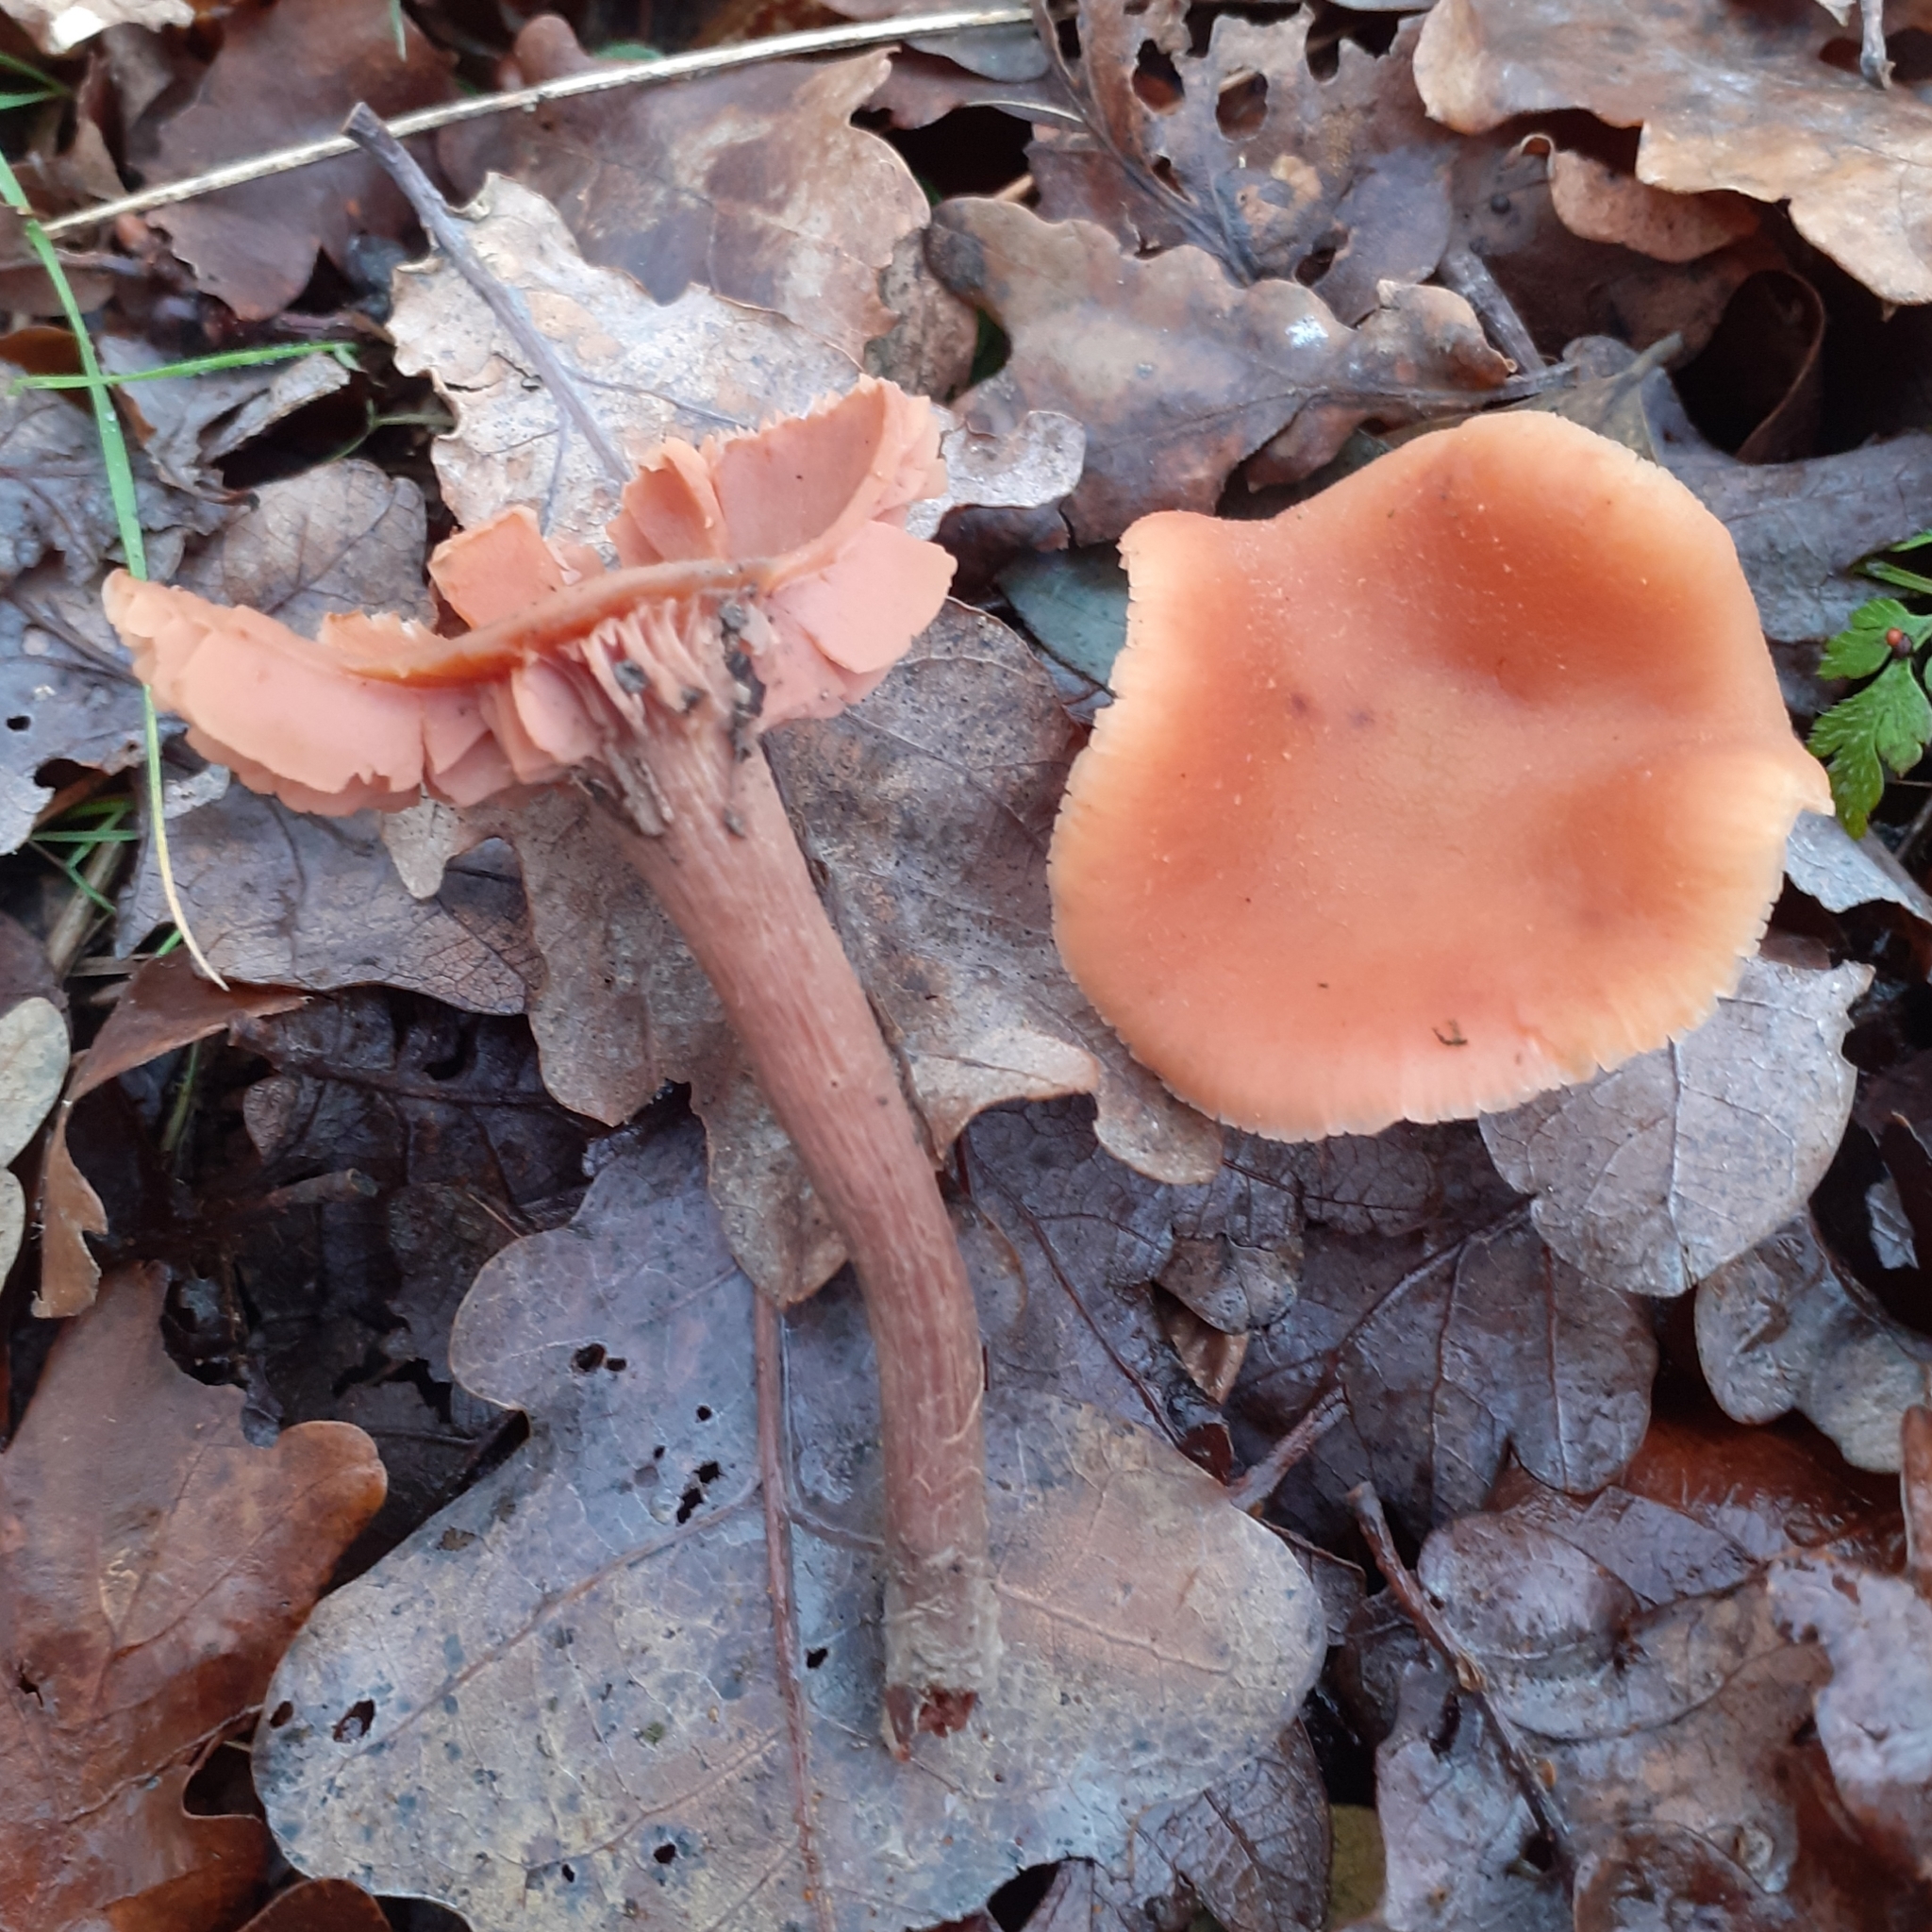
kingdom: Fungi
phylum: Basidiomycota
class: Agaricomycetes
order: Agaricales
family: Hydnangiaceae
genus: Laccaria
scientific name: Laccaria laccata
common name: Deceiver
